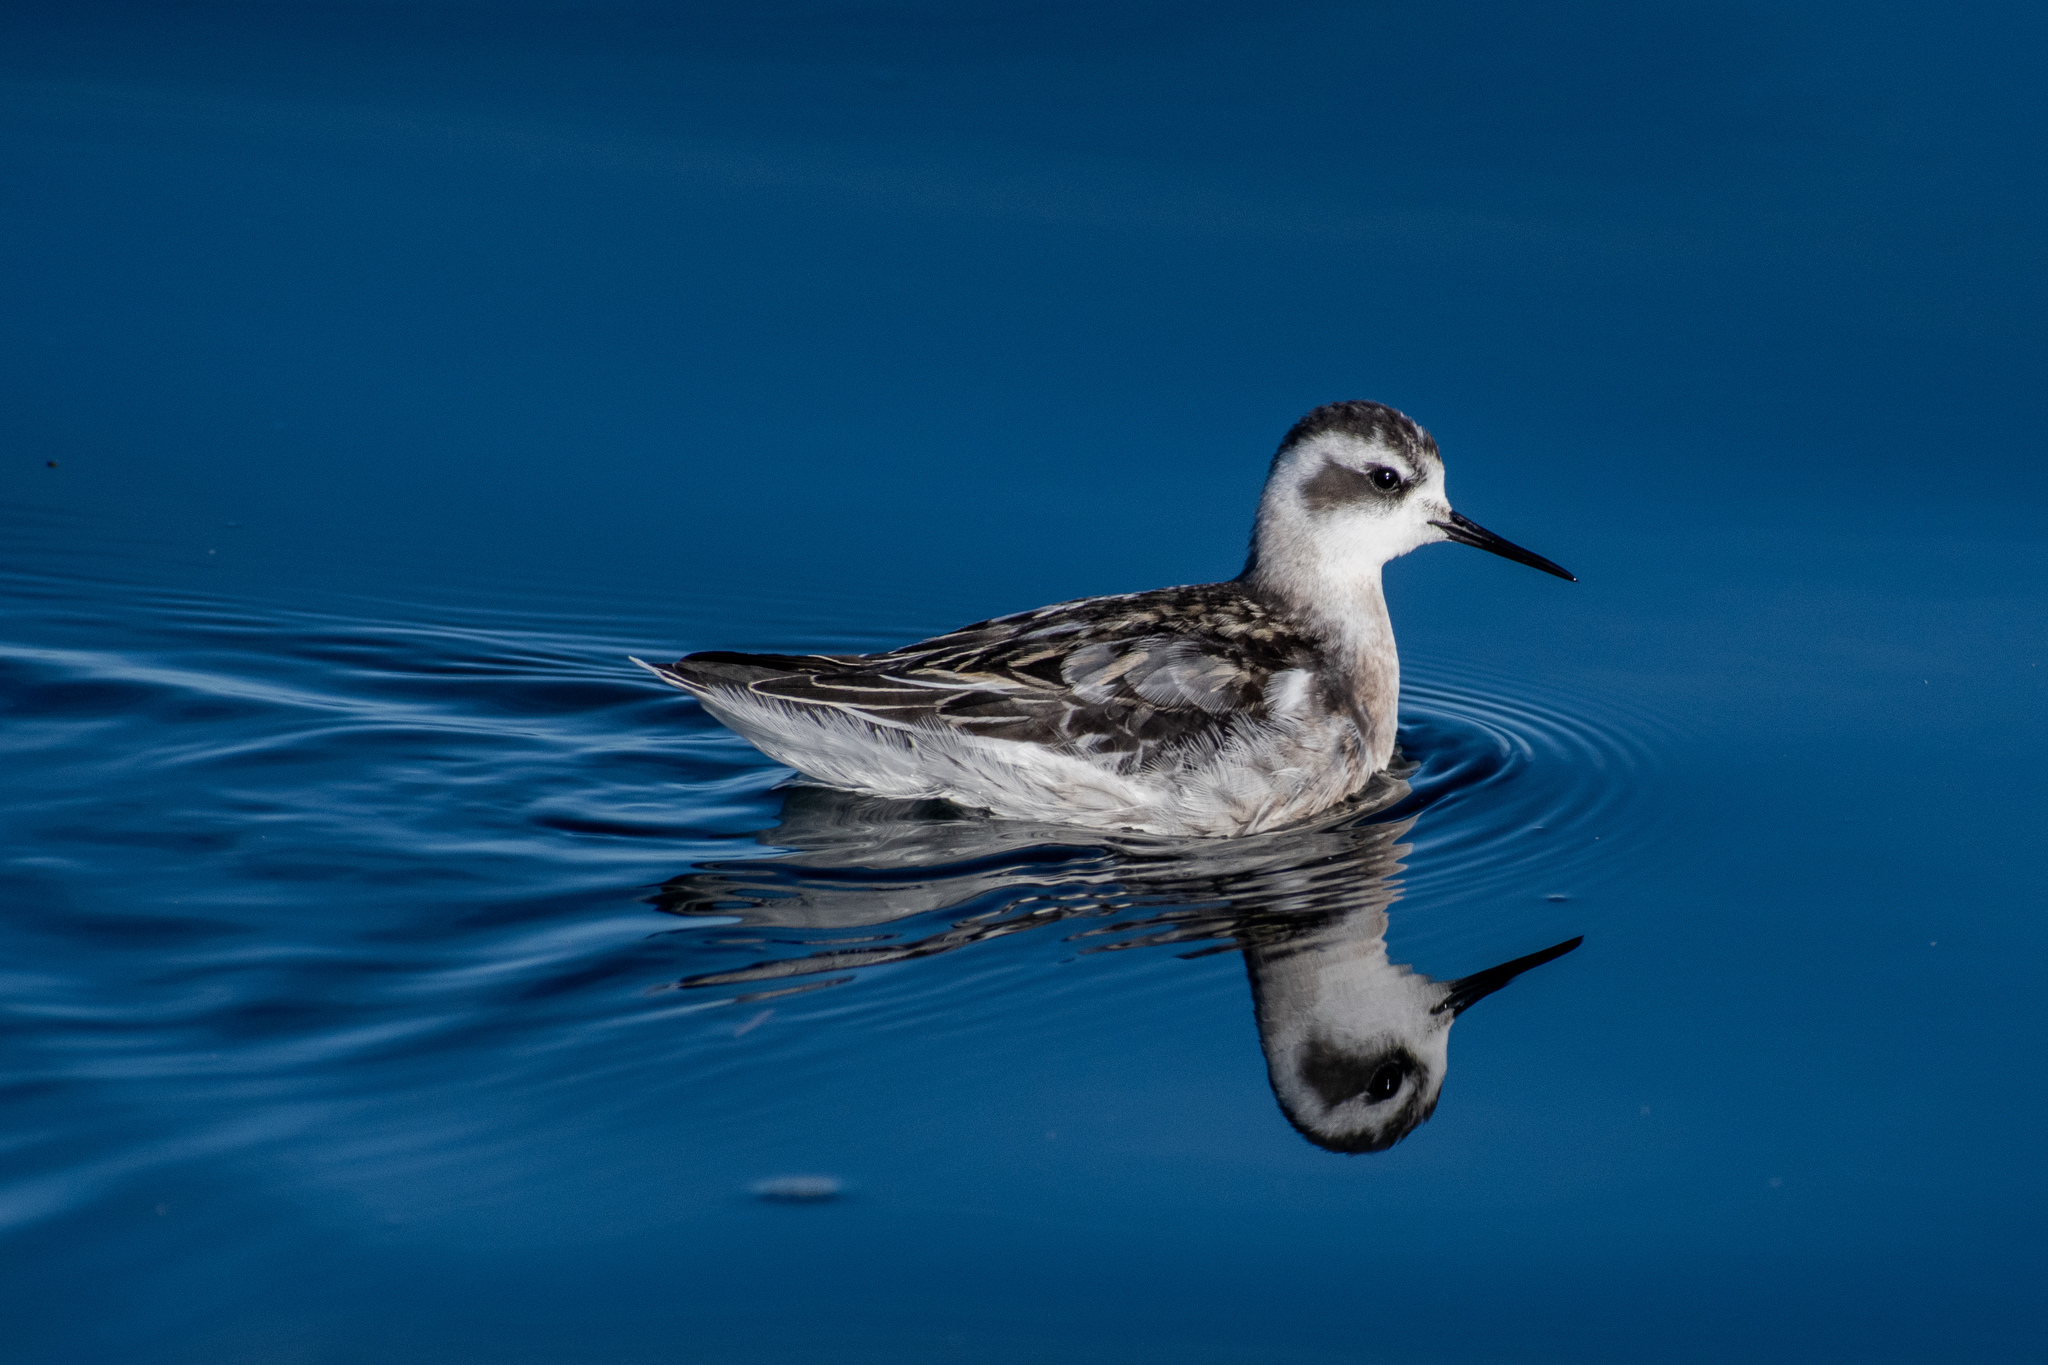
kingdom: Animalia
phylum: Chordata
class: Aves
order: Charadriiformes
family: Scolopacidae
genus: Phalaropus
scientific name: Phalaropus lobatus
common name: Red-necked phalarope
